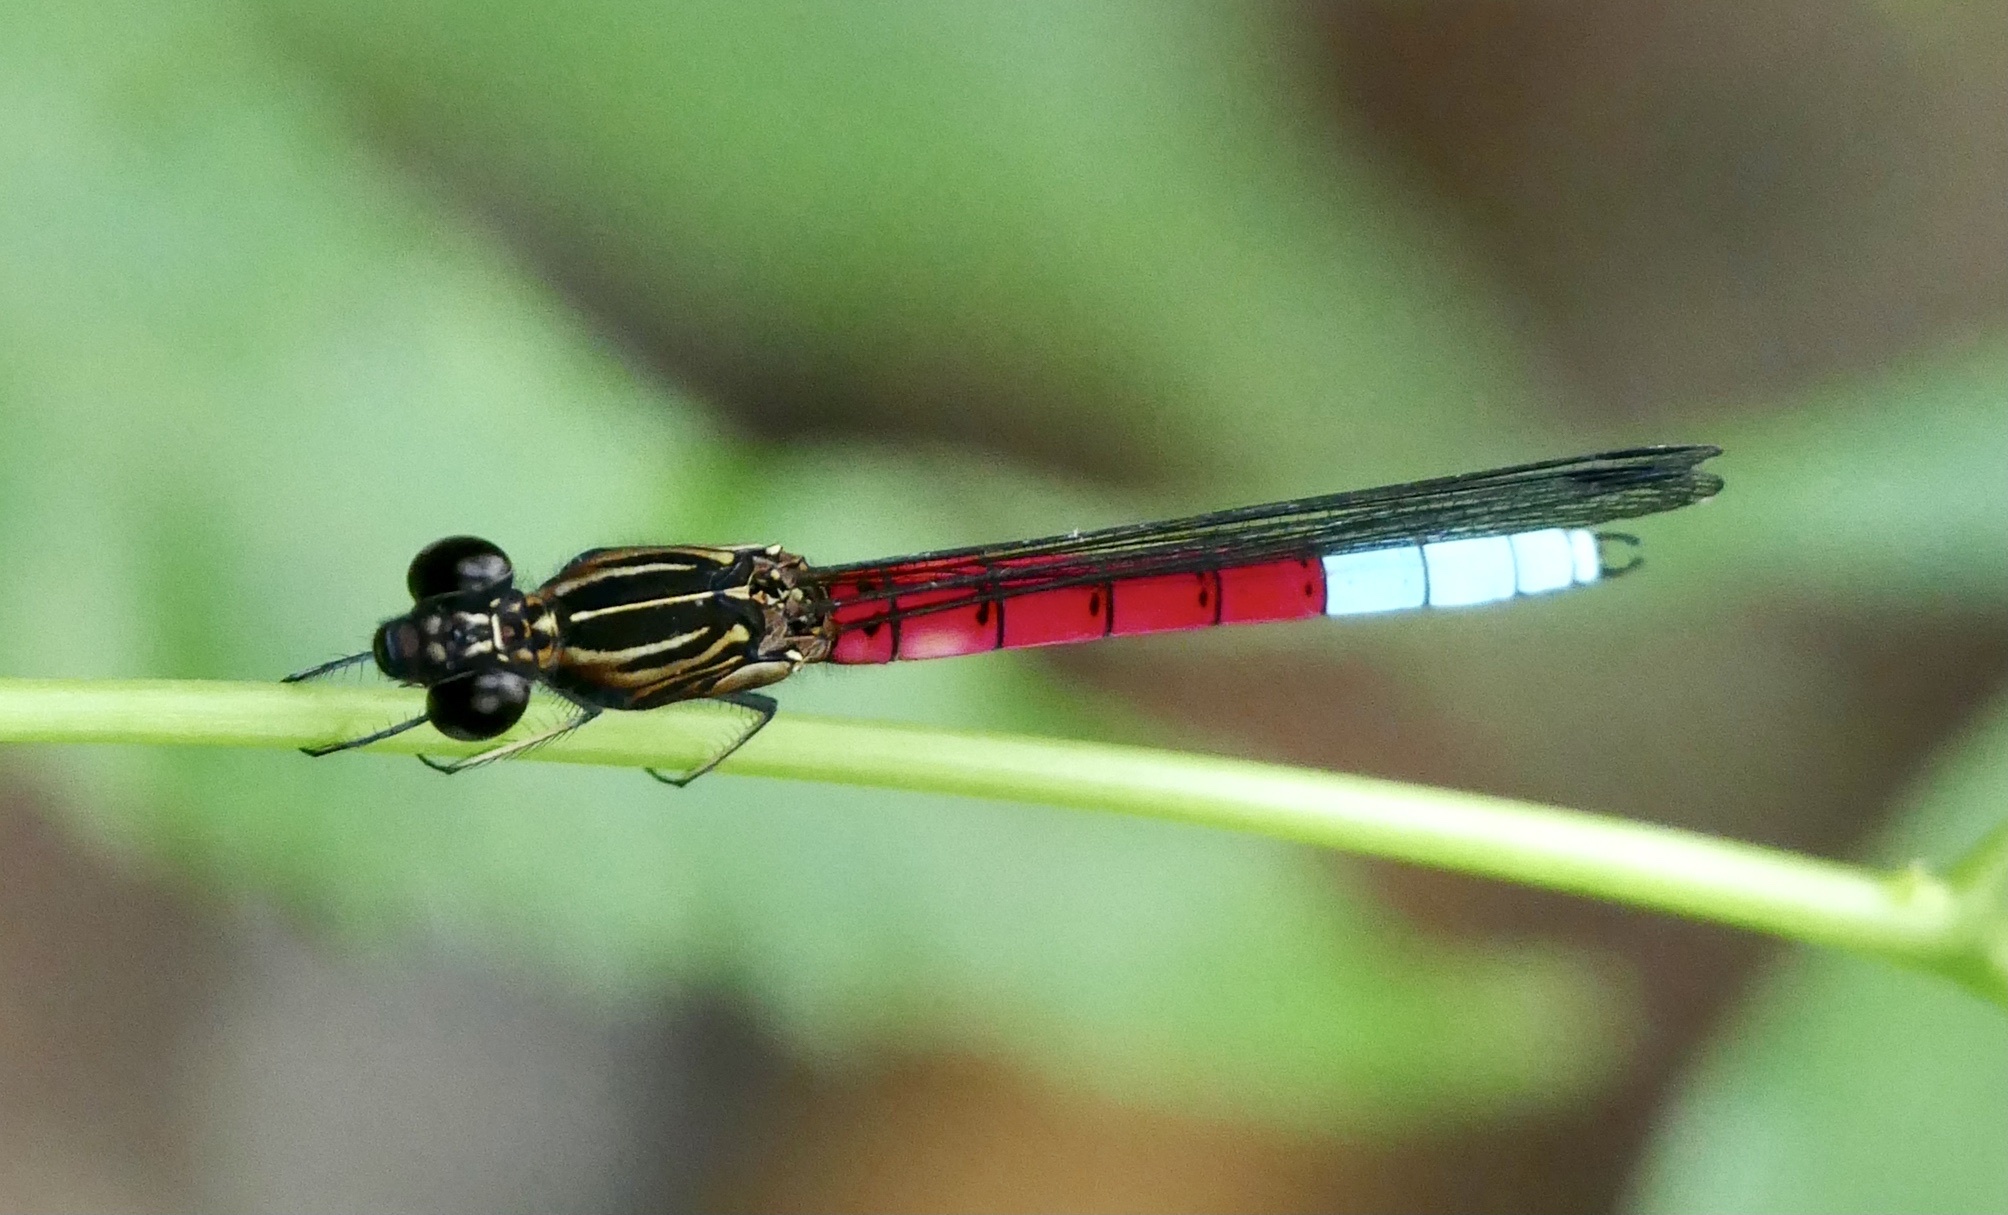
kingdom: Animalia
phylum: Arthropoda
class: Insecta
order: Odonata
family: Chlorocyphidae
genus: Chlorocypha
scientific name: Chlorocypha curta
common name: Blue-tipped jewel
